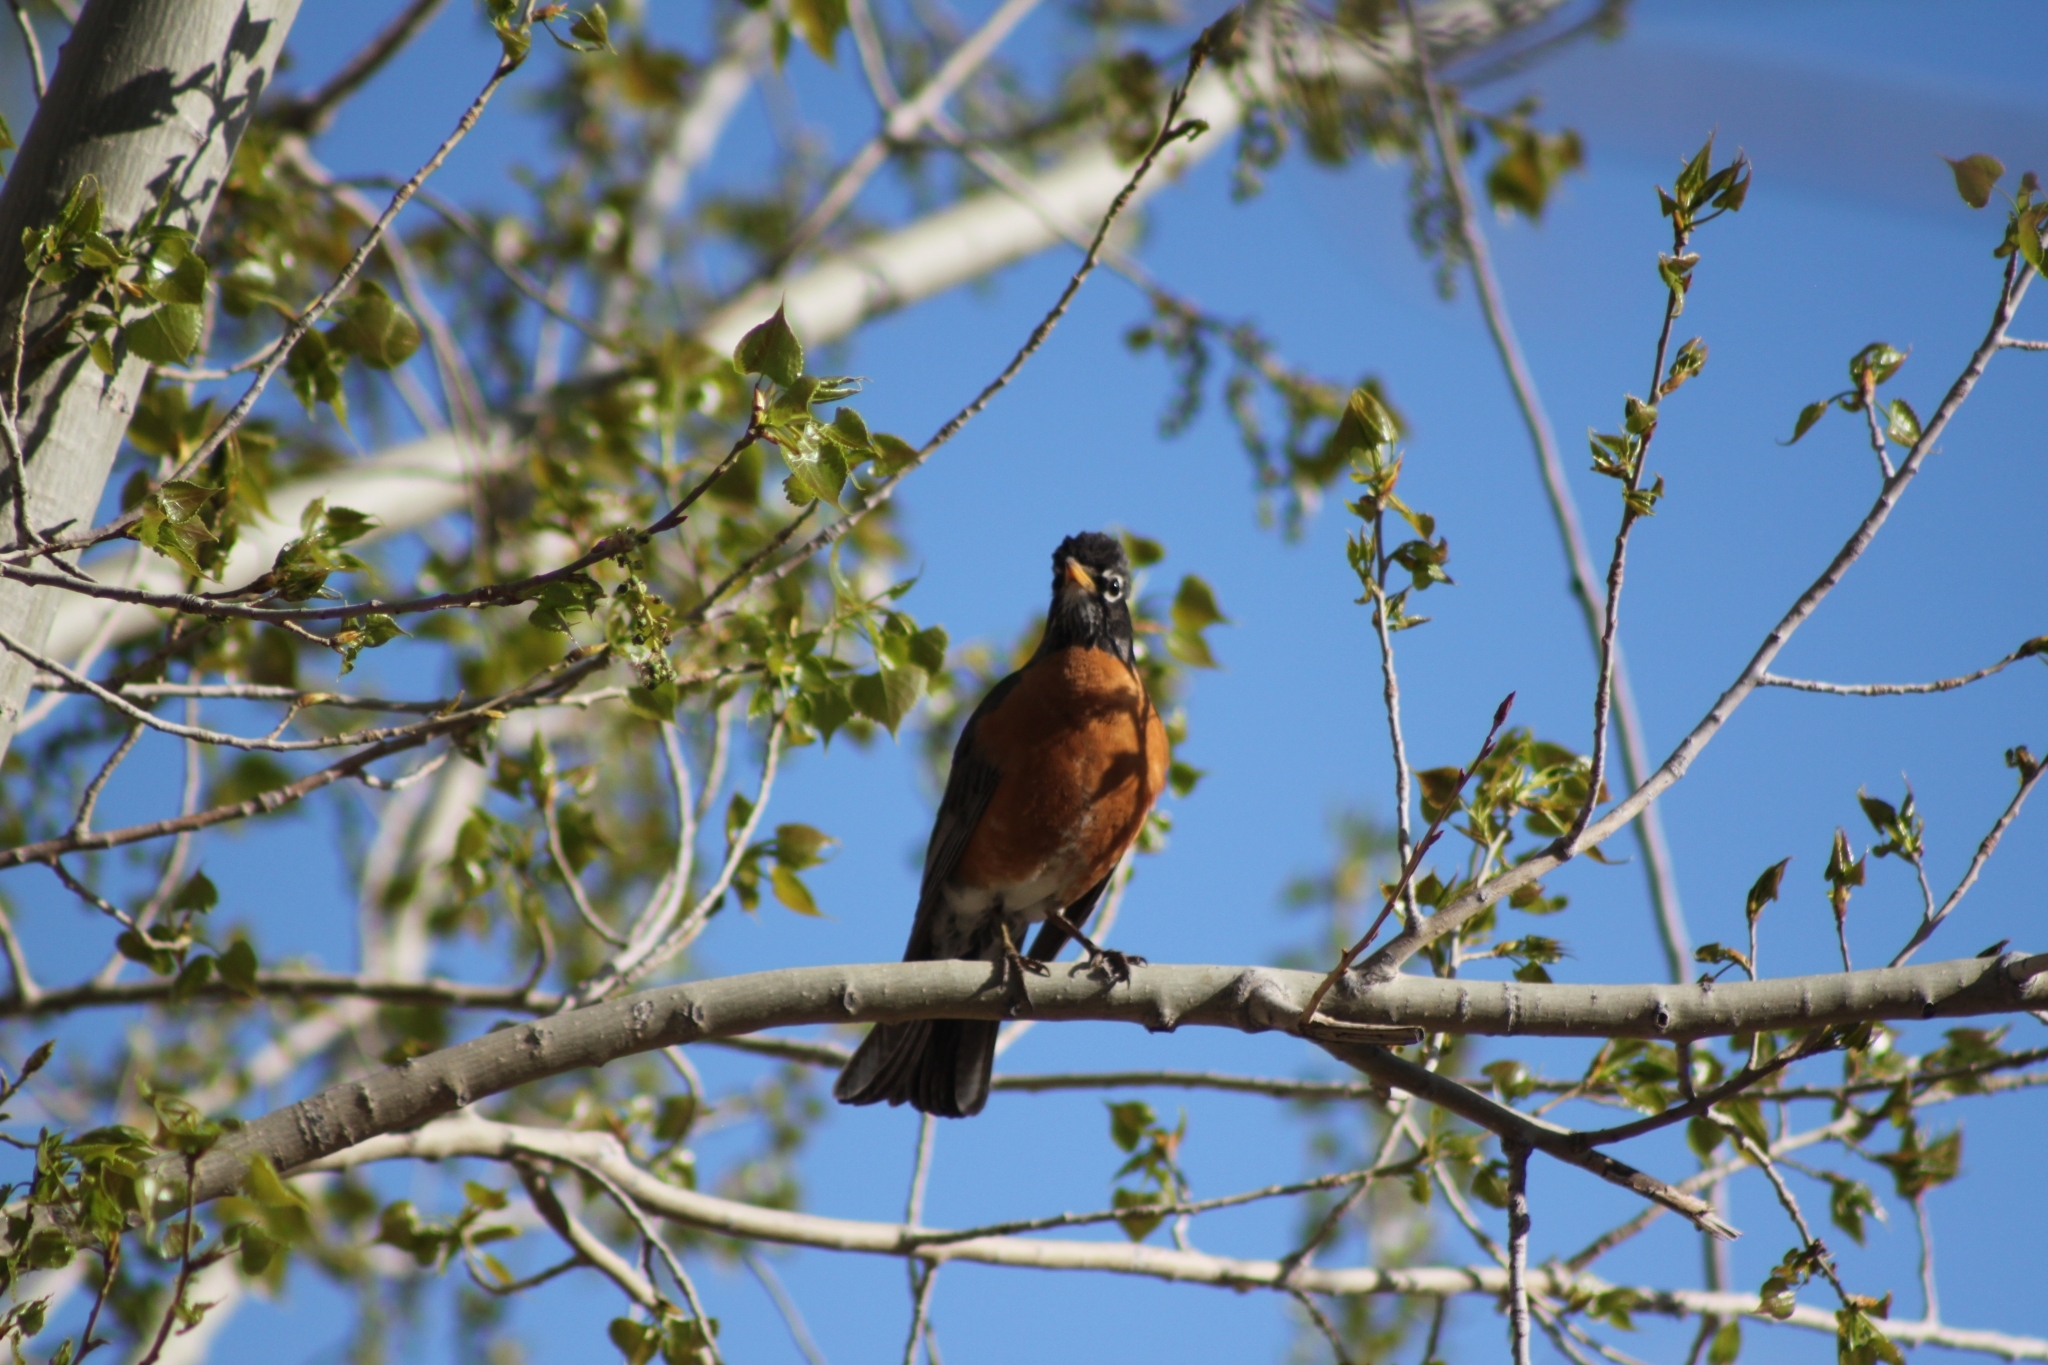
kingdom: Animalia
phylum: Chordata
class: Aves
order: Passeriformes
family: Turdidae
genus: Turdus
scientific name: Turdus migratorius
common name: American robin
